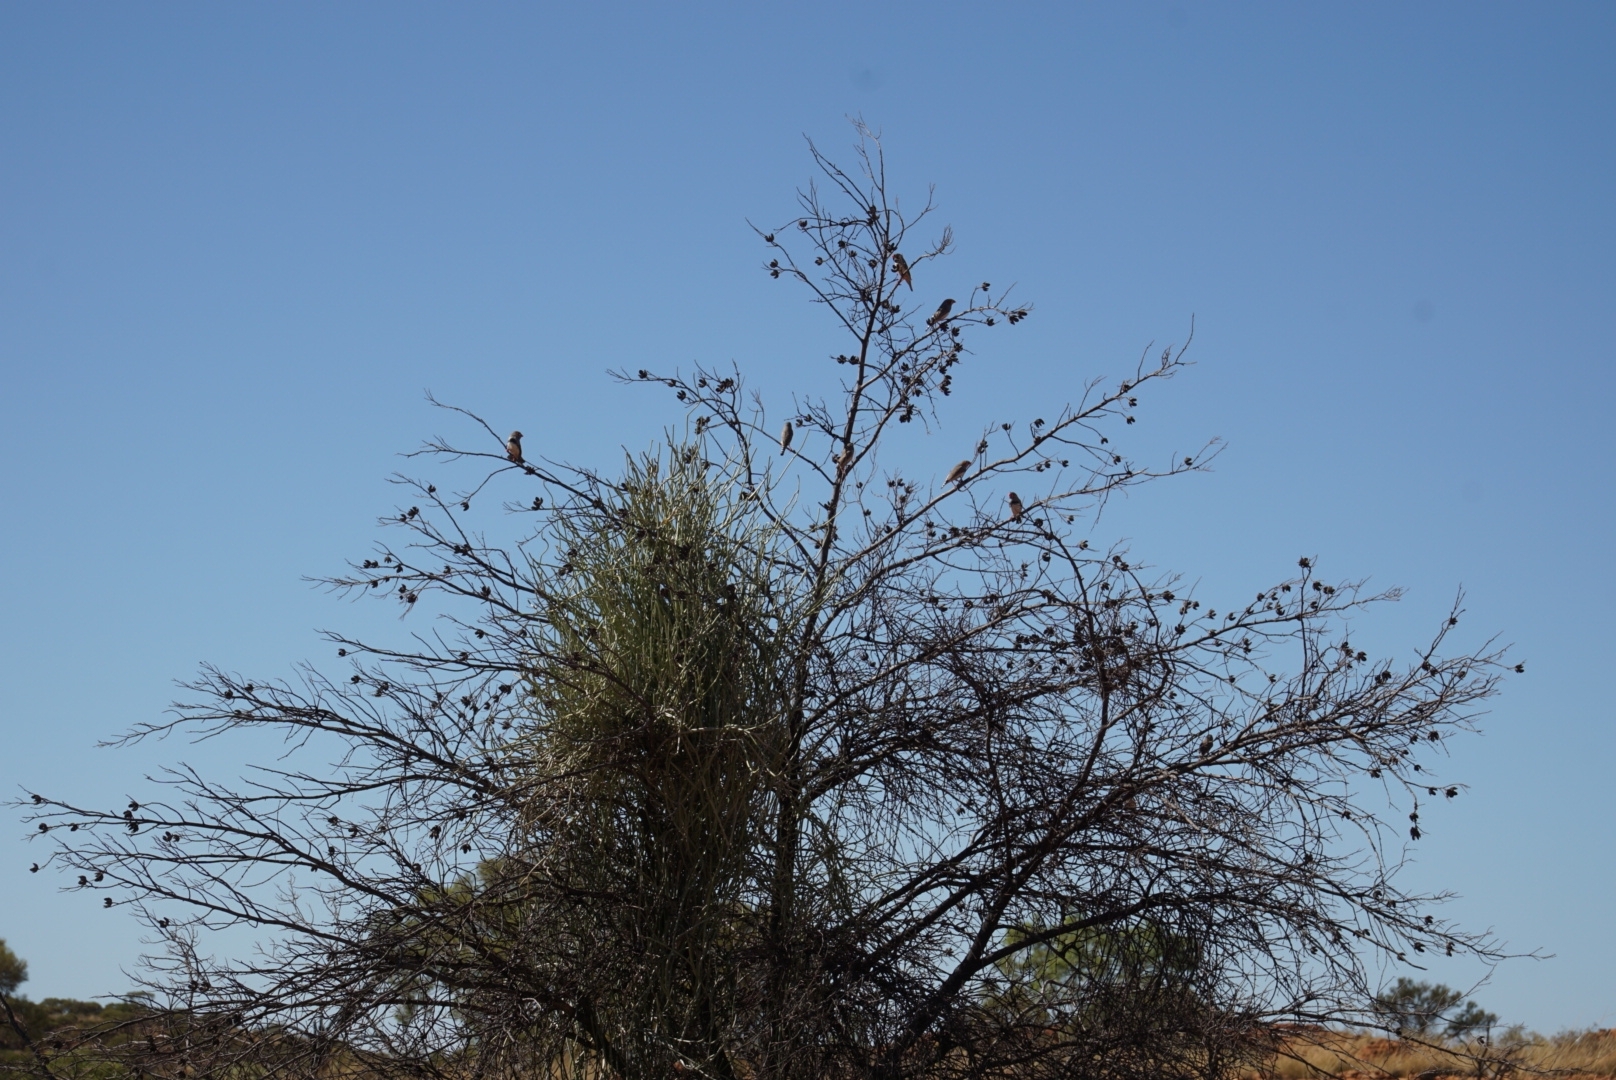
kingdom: Animalia
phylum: Chordata
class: Aves
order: Passeriformes
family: Estrildidae
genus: Taeniopygia
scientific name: Taeniopygia guttata
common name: Zebra finch
